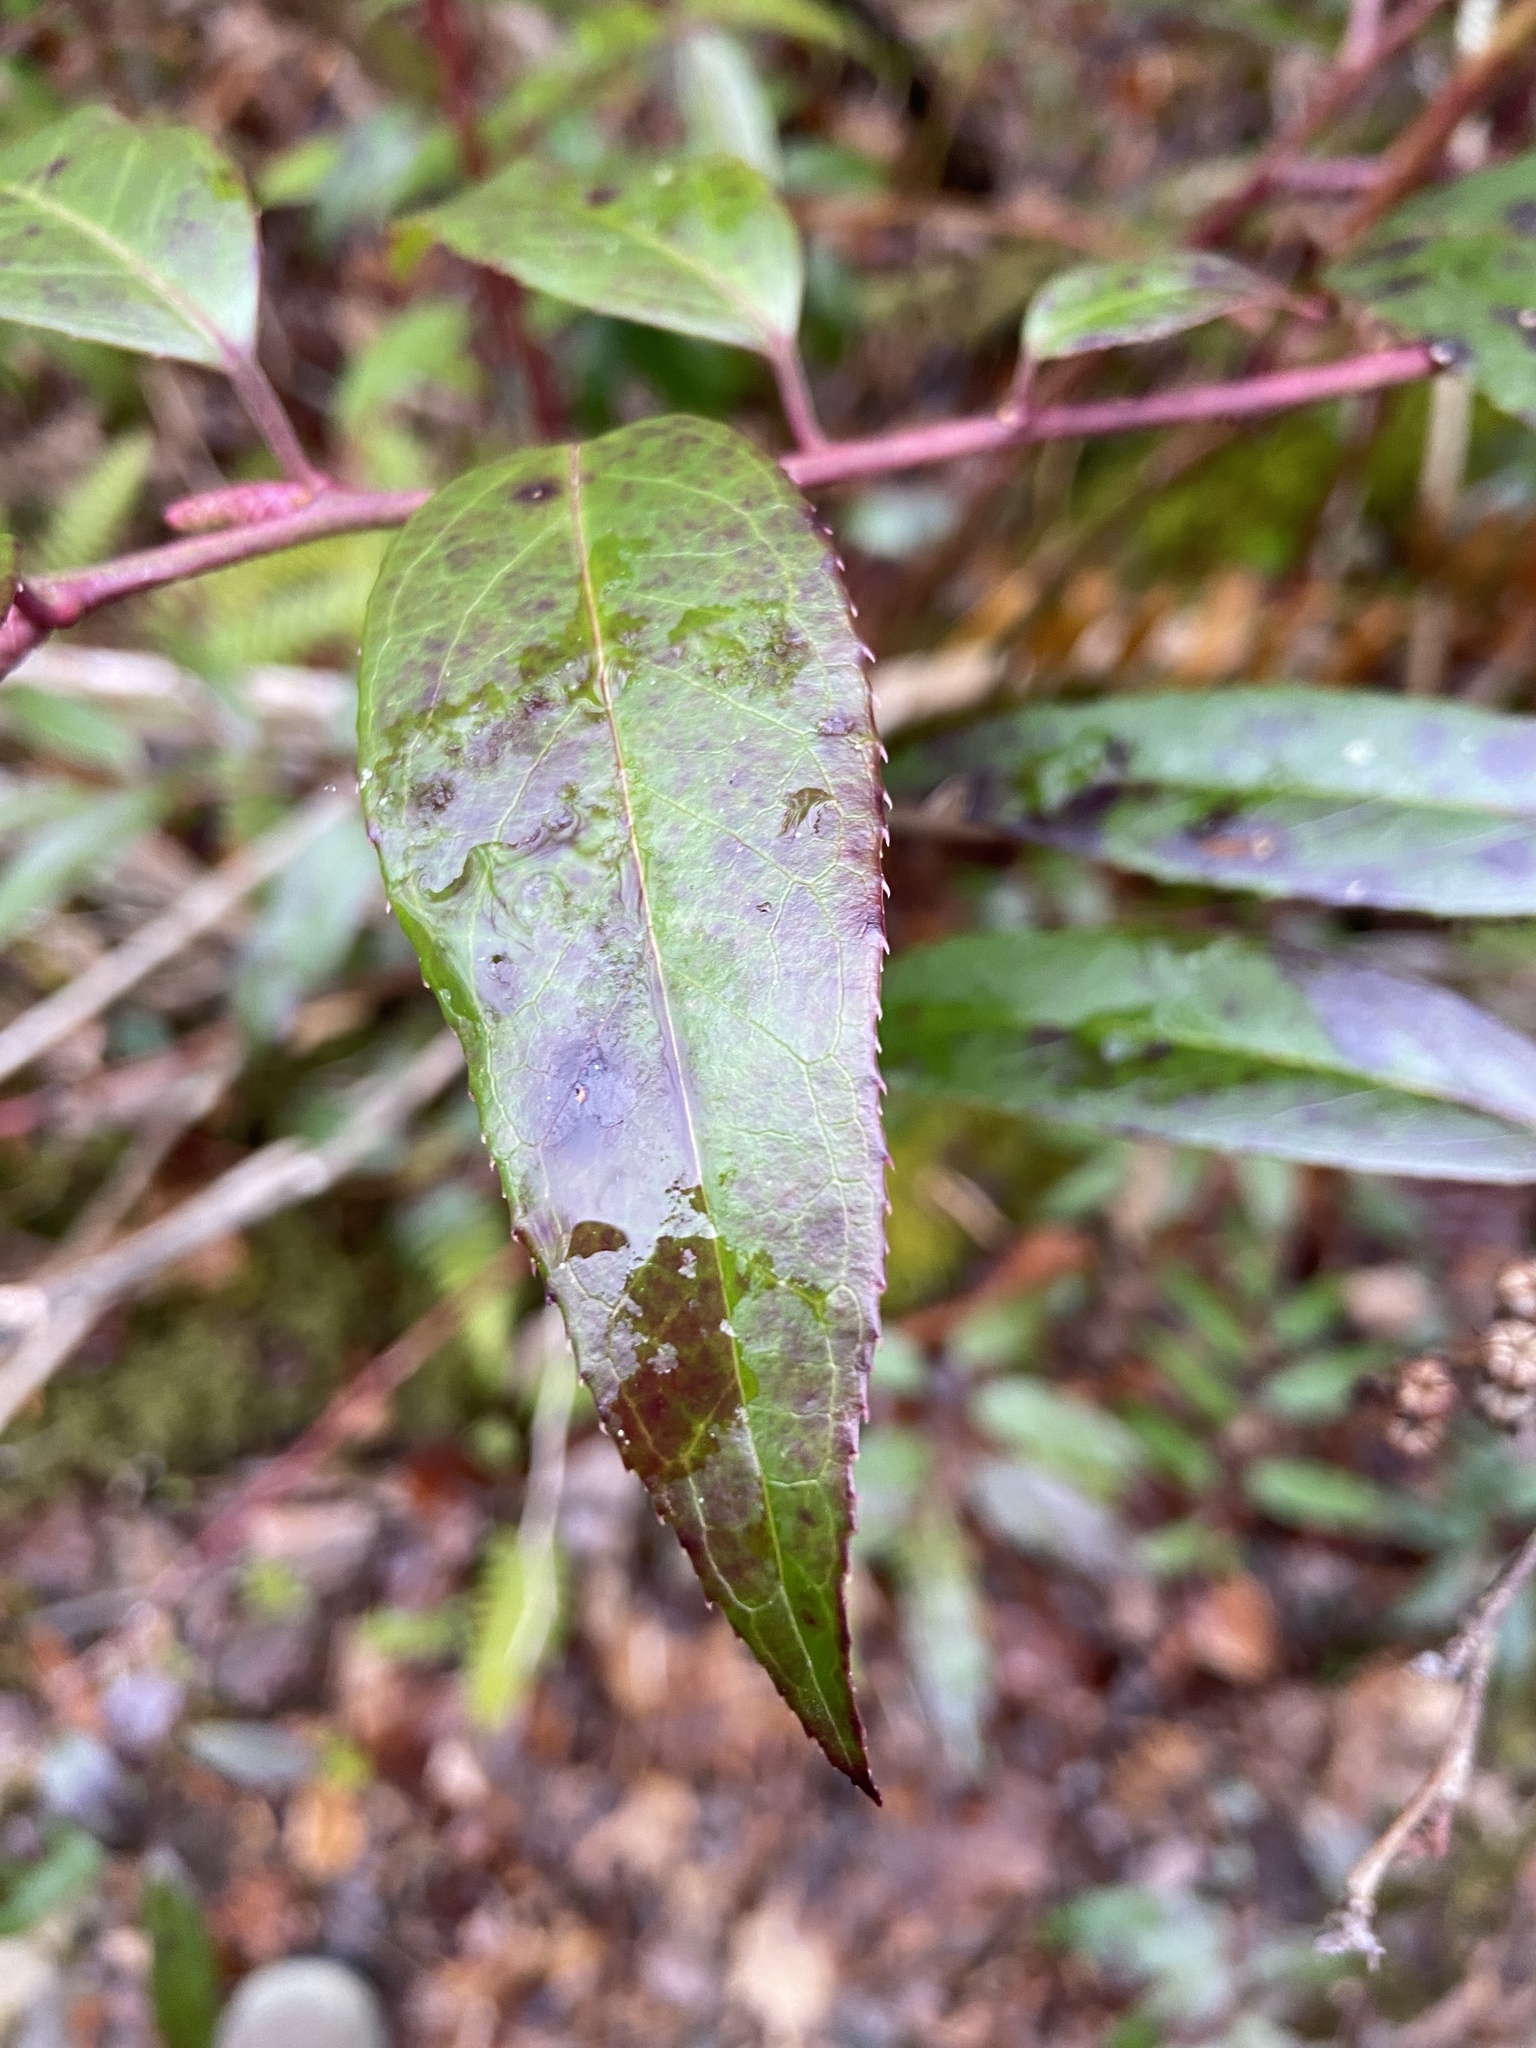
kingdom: Plantae
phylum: Tracheophyta
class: Magnoliopsida
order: Ericales
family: Ericaceae
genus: Leucothoe
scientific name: Leucothoe fontanesiana
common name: Fetterbush
